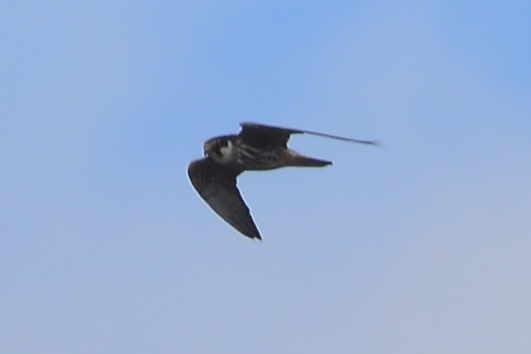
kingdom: Animalia
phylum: Chordata
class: Aves
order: Falconiformes
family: Falconidae
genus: Falco
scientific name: Falco subbuteo
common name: Eurasian hobby
